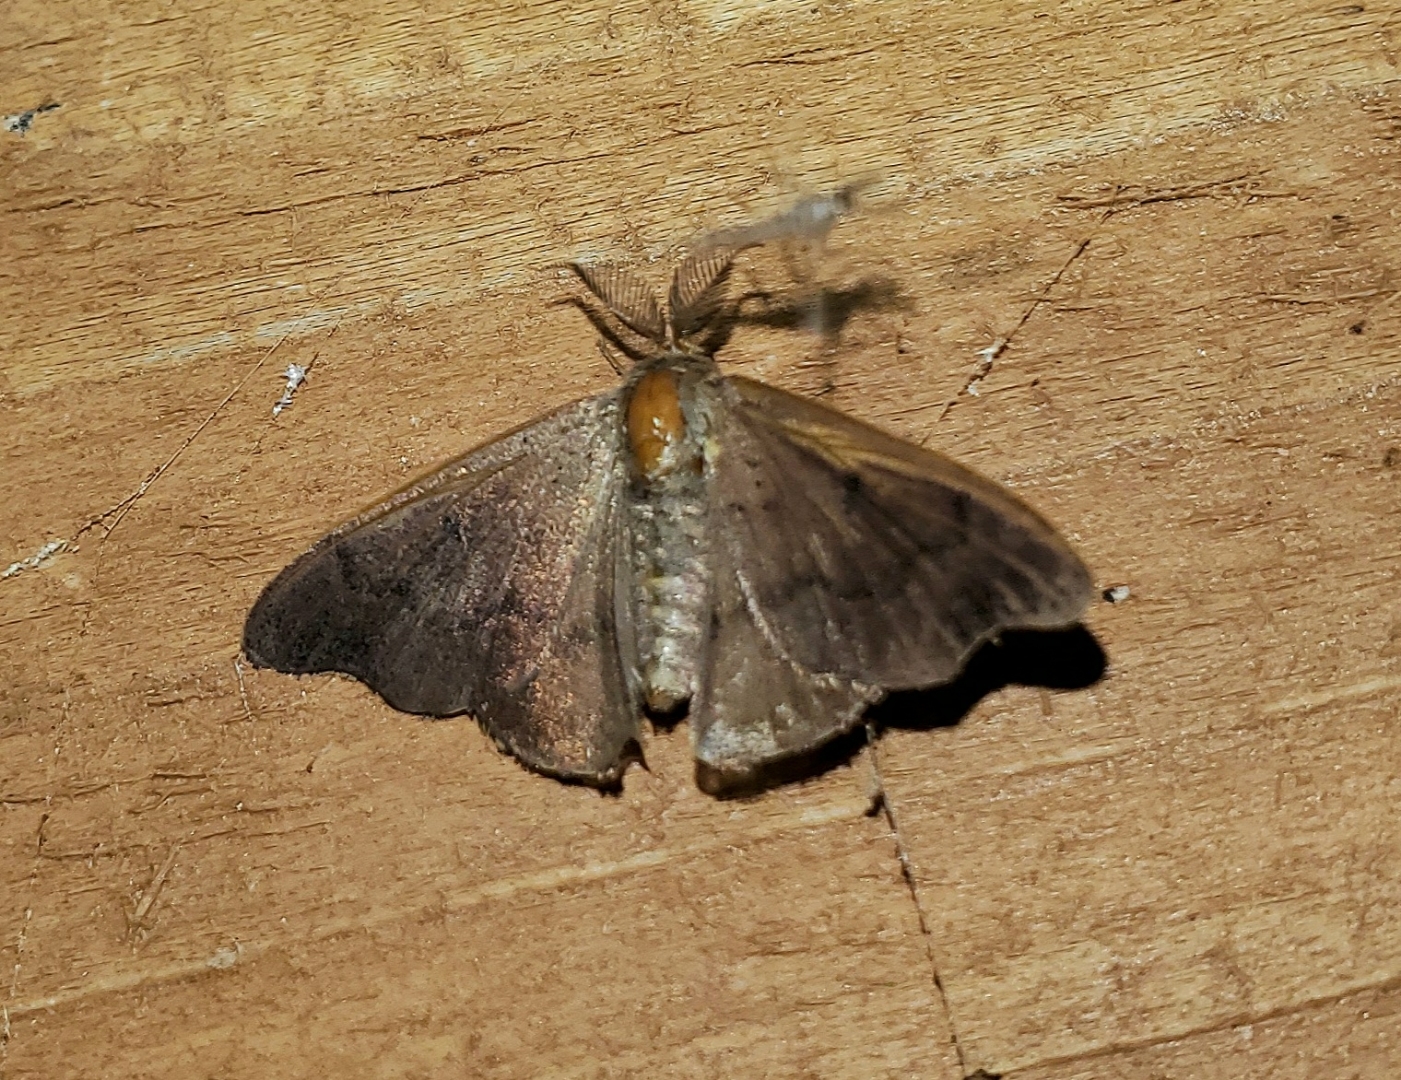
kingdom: Animalia
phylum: Arthropoda
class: Insecta
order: Lepidoptera
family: Mimallonidae
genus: Lacosoma
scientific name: Lacosoma chiridota
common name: Scalloped sack-bearer moth
